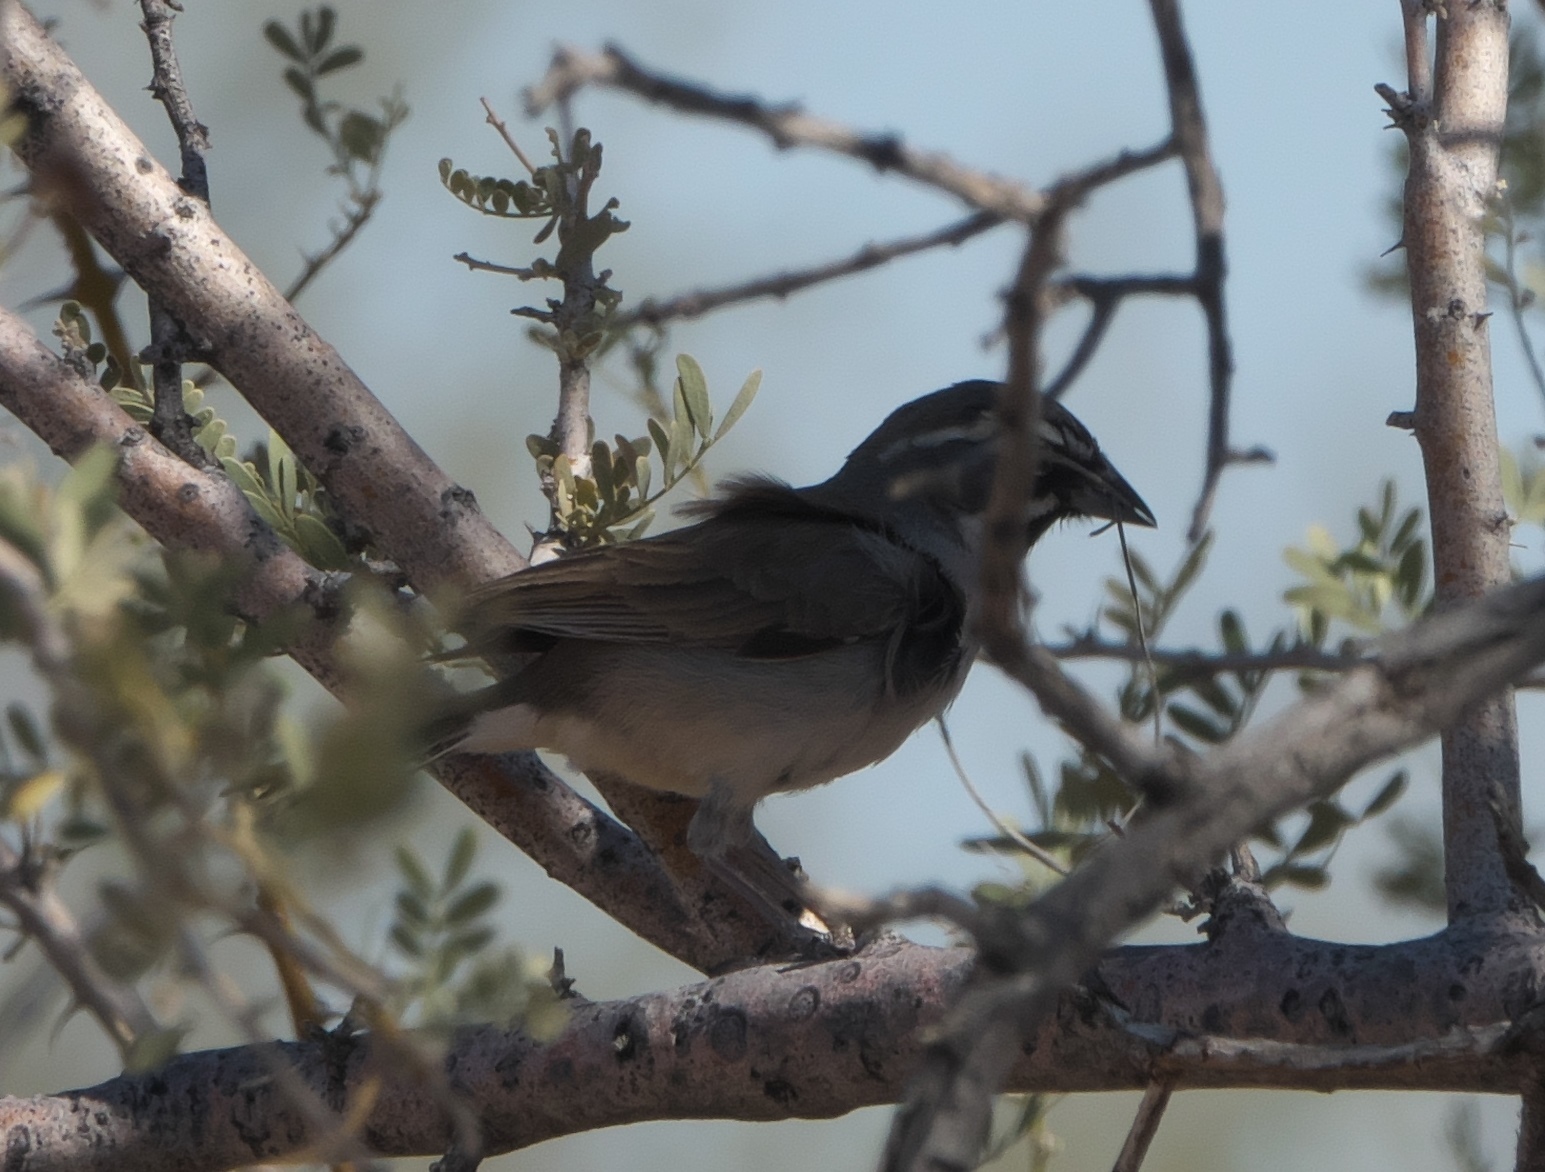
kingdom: Animalia
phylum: Chordata
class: Aves
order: Passeriformes
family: Passerellidae
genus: Amphispiza
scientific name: Amphispiza bilineata
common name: Black-throated sparrow
